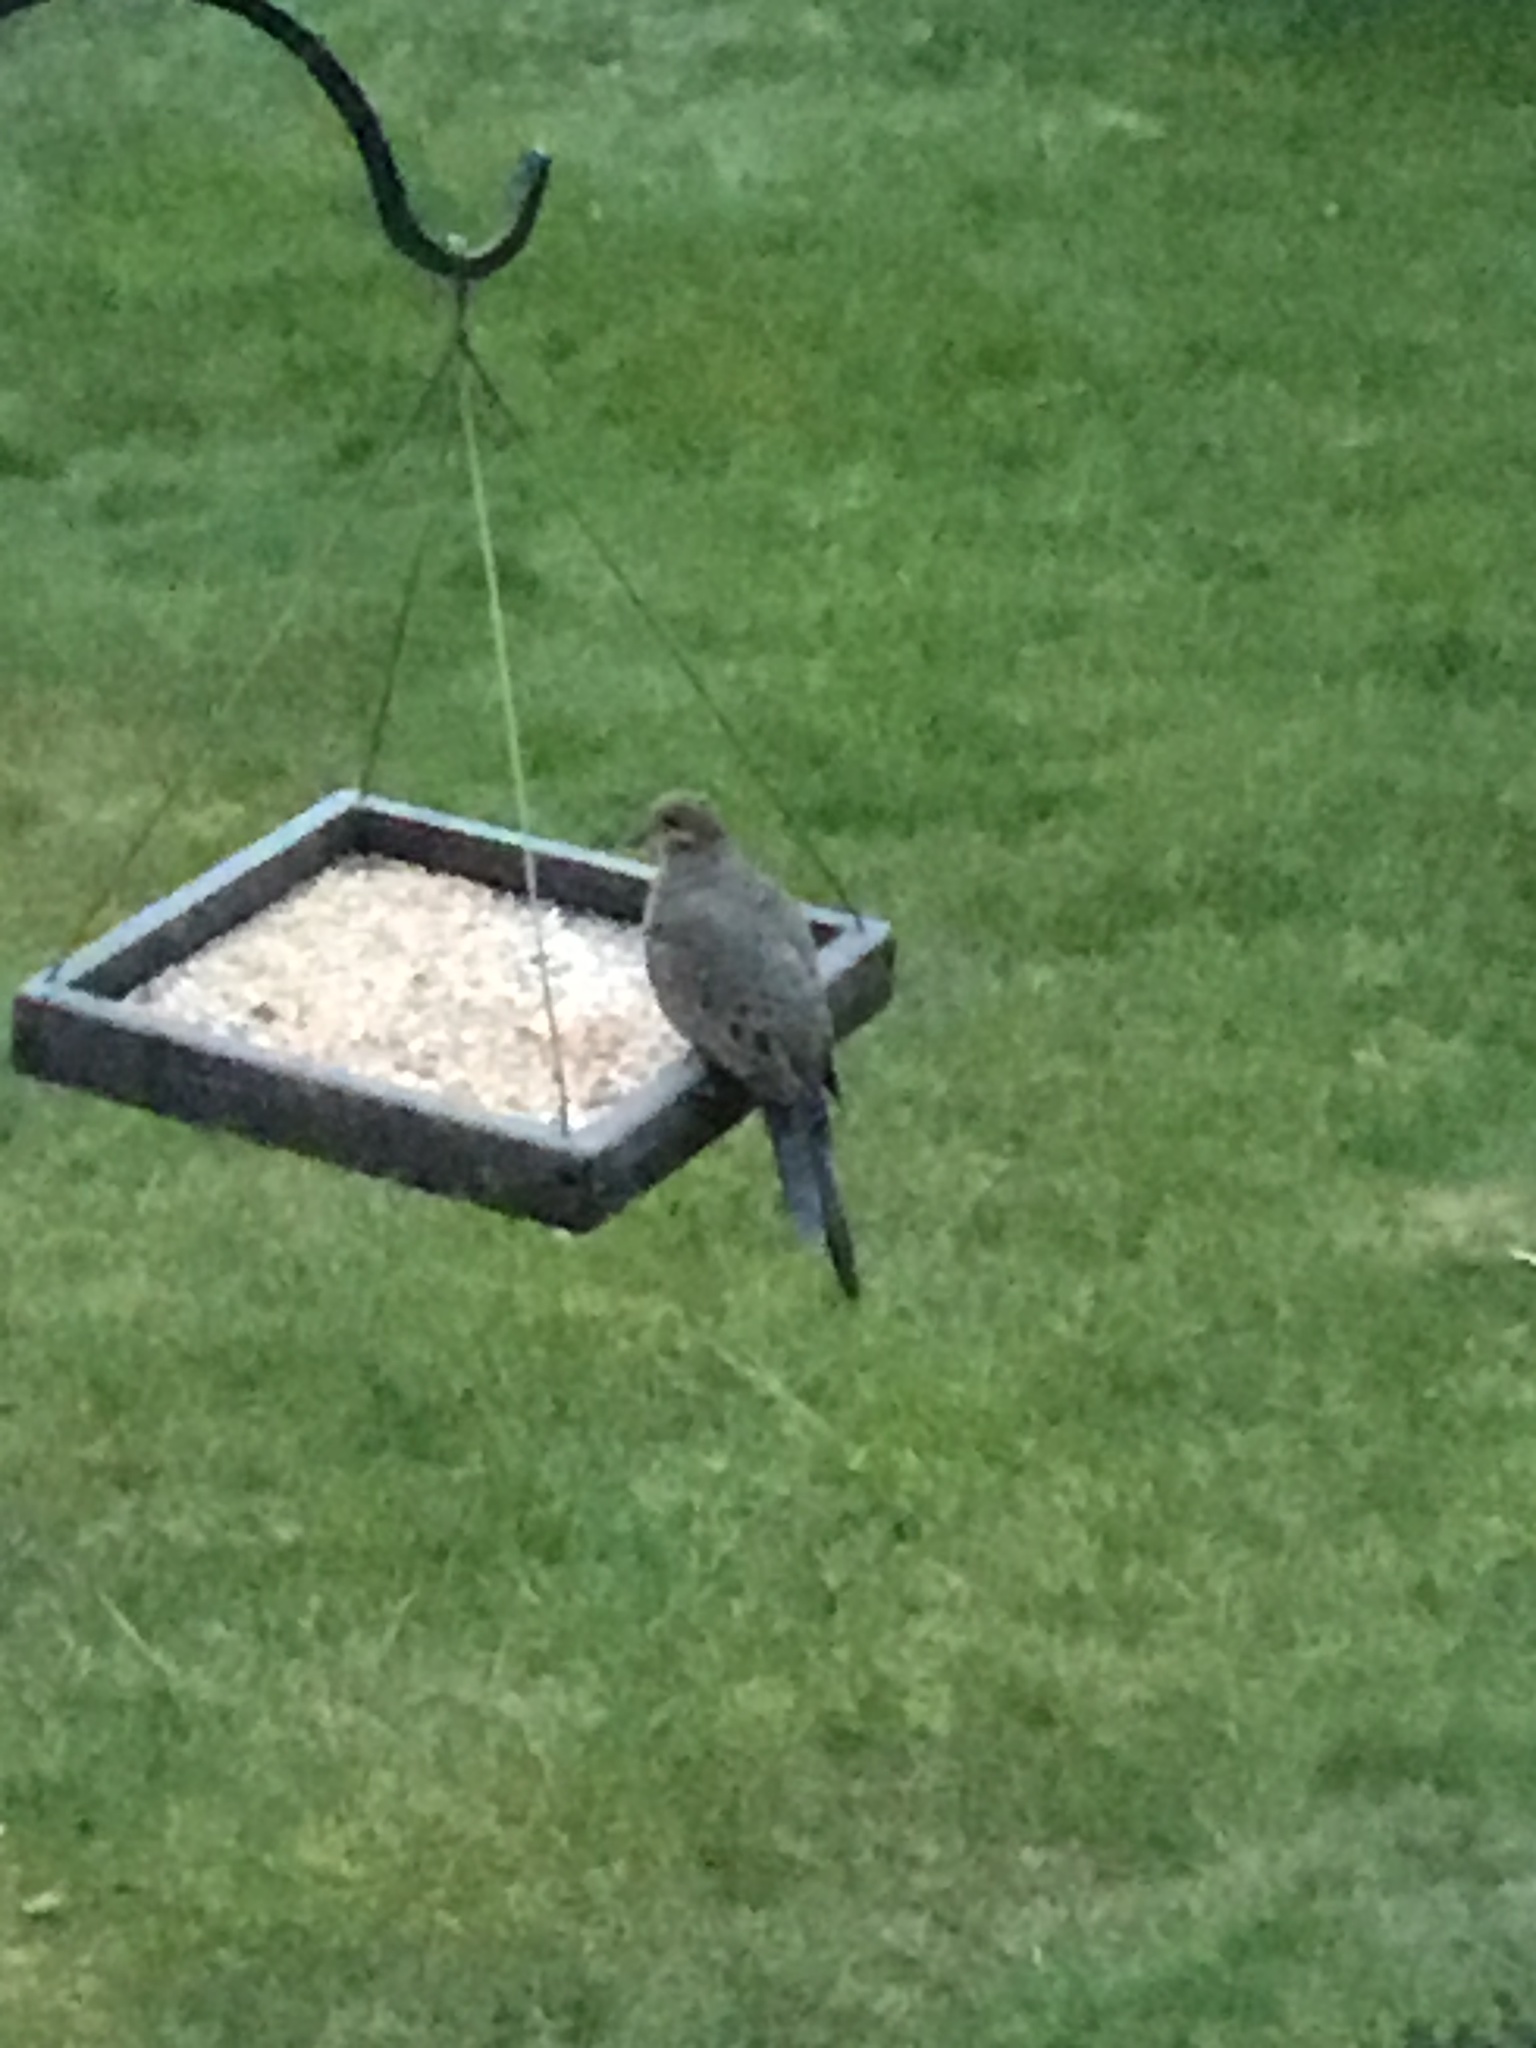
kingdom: Animalia
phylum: Chordata
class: Aves
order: Columbiformes
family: Columbidae
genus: Zenaida
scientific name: Zenaida macroura
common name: Mourning dove
